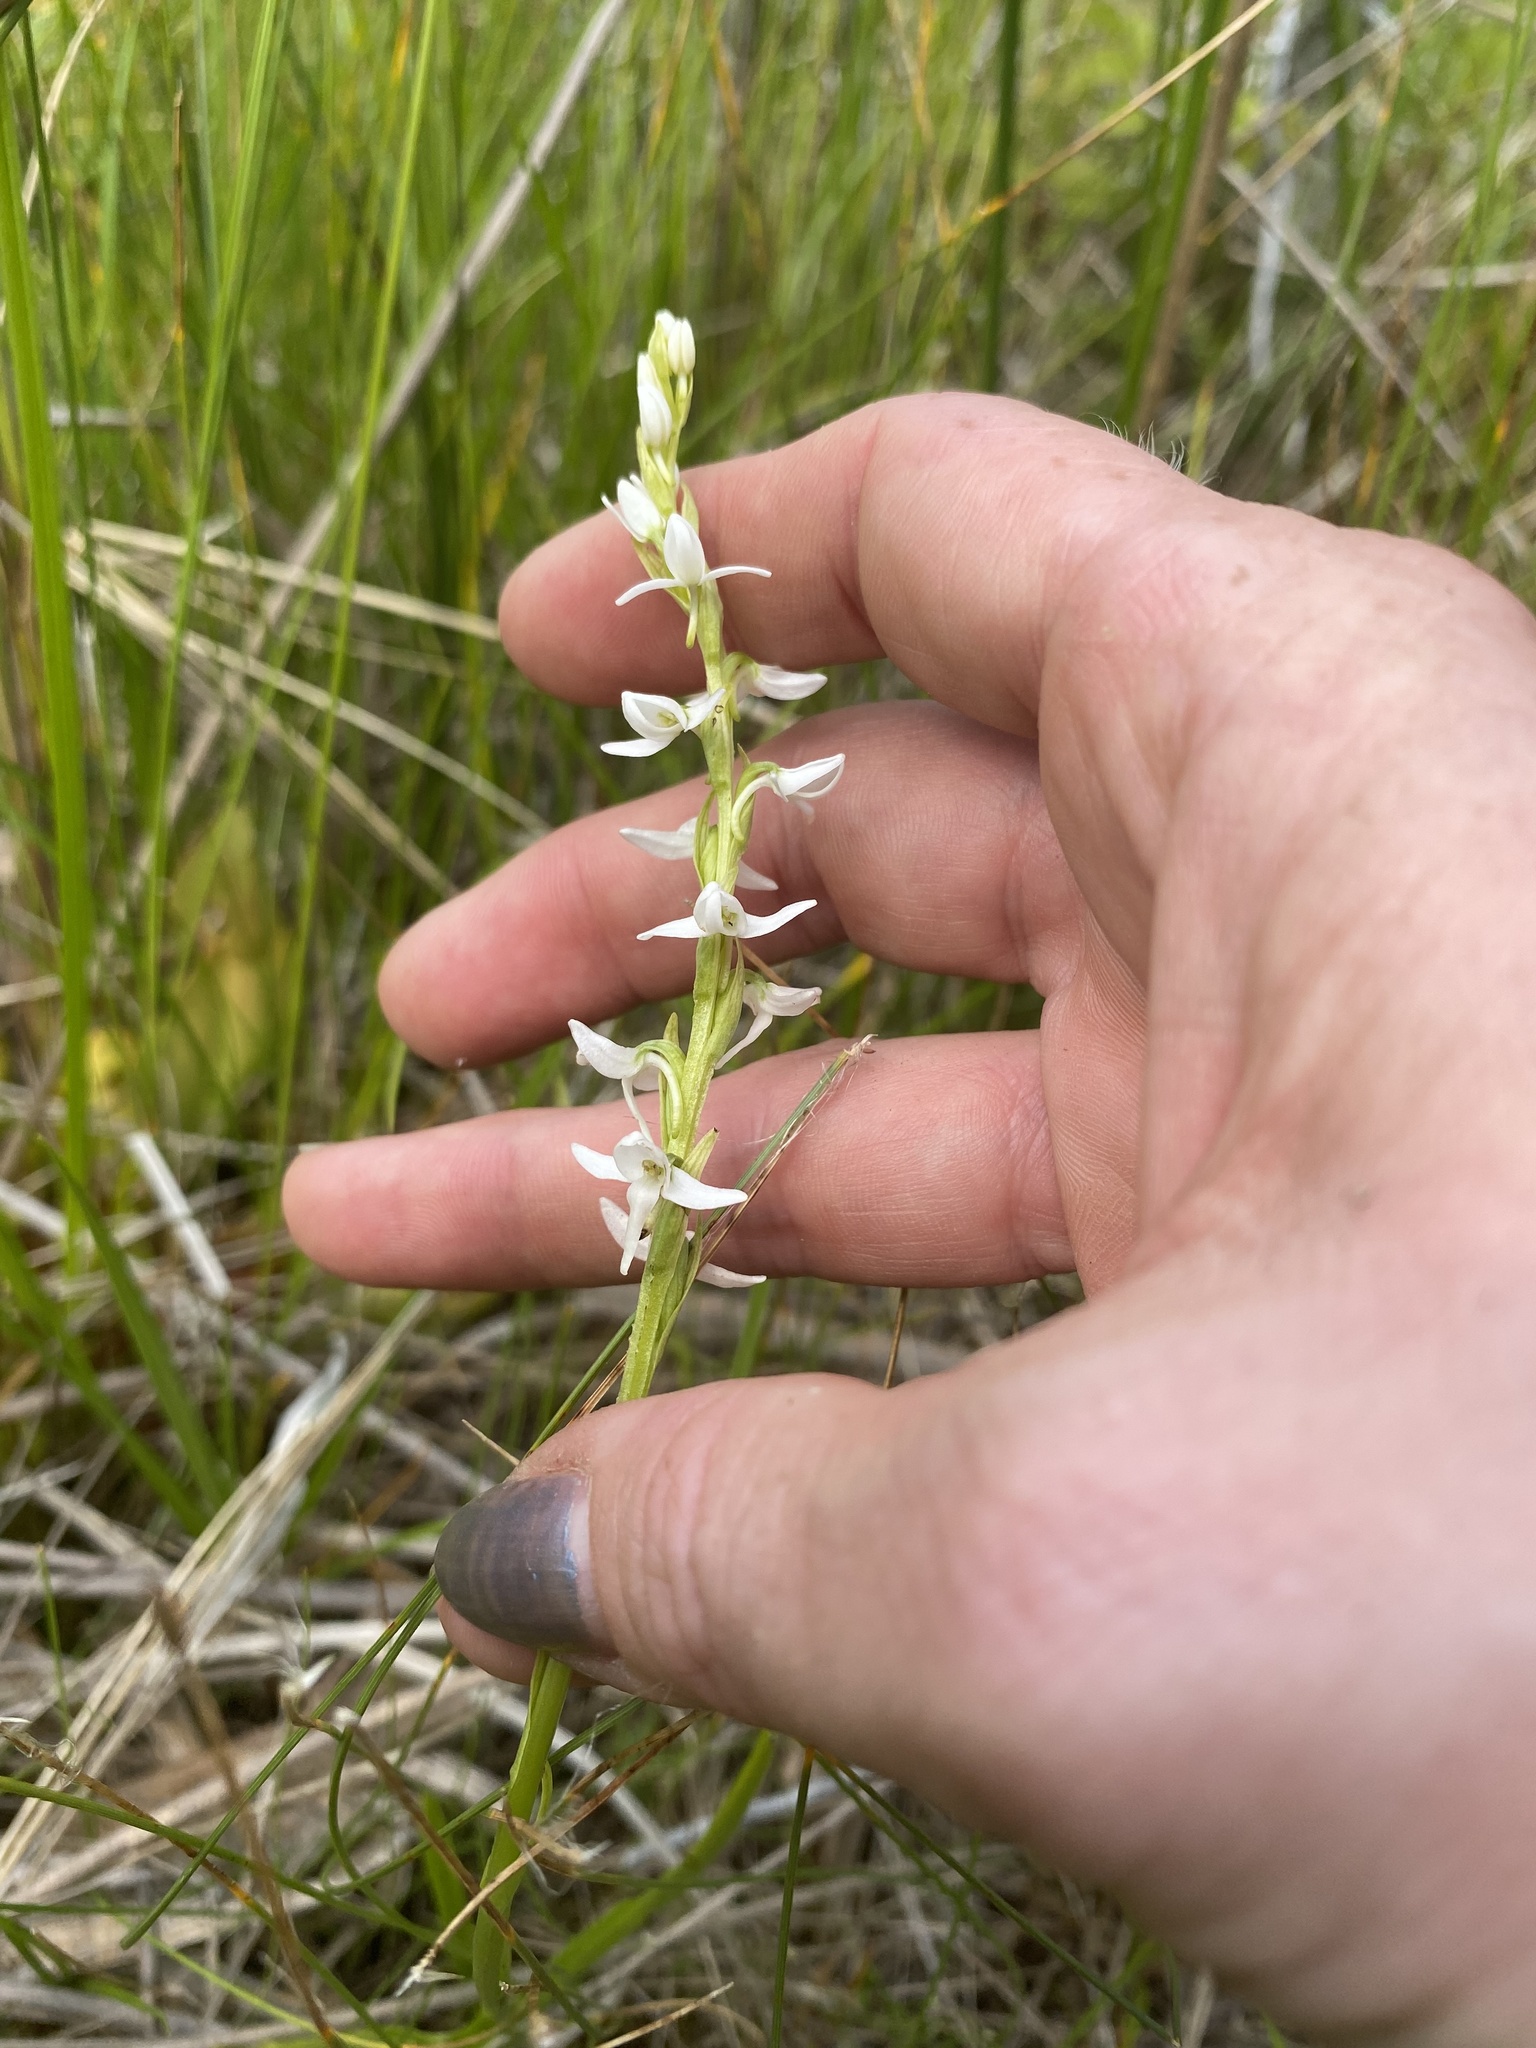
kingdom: Plantae
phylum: Tracheophyta
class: Liliopsida
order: Asparagales
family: Orchidaceae
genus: Platanthera
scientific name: Platanthera dilatata
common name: Bog candles
